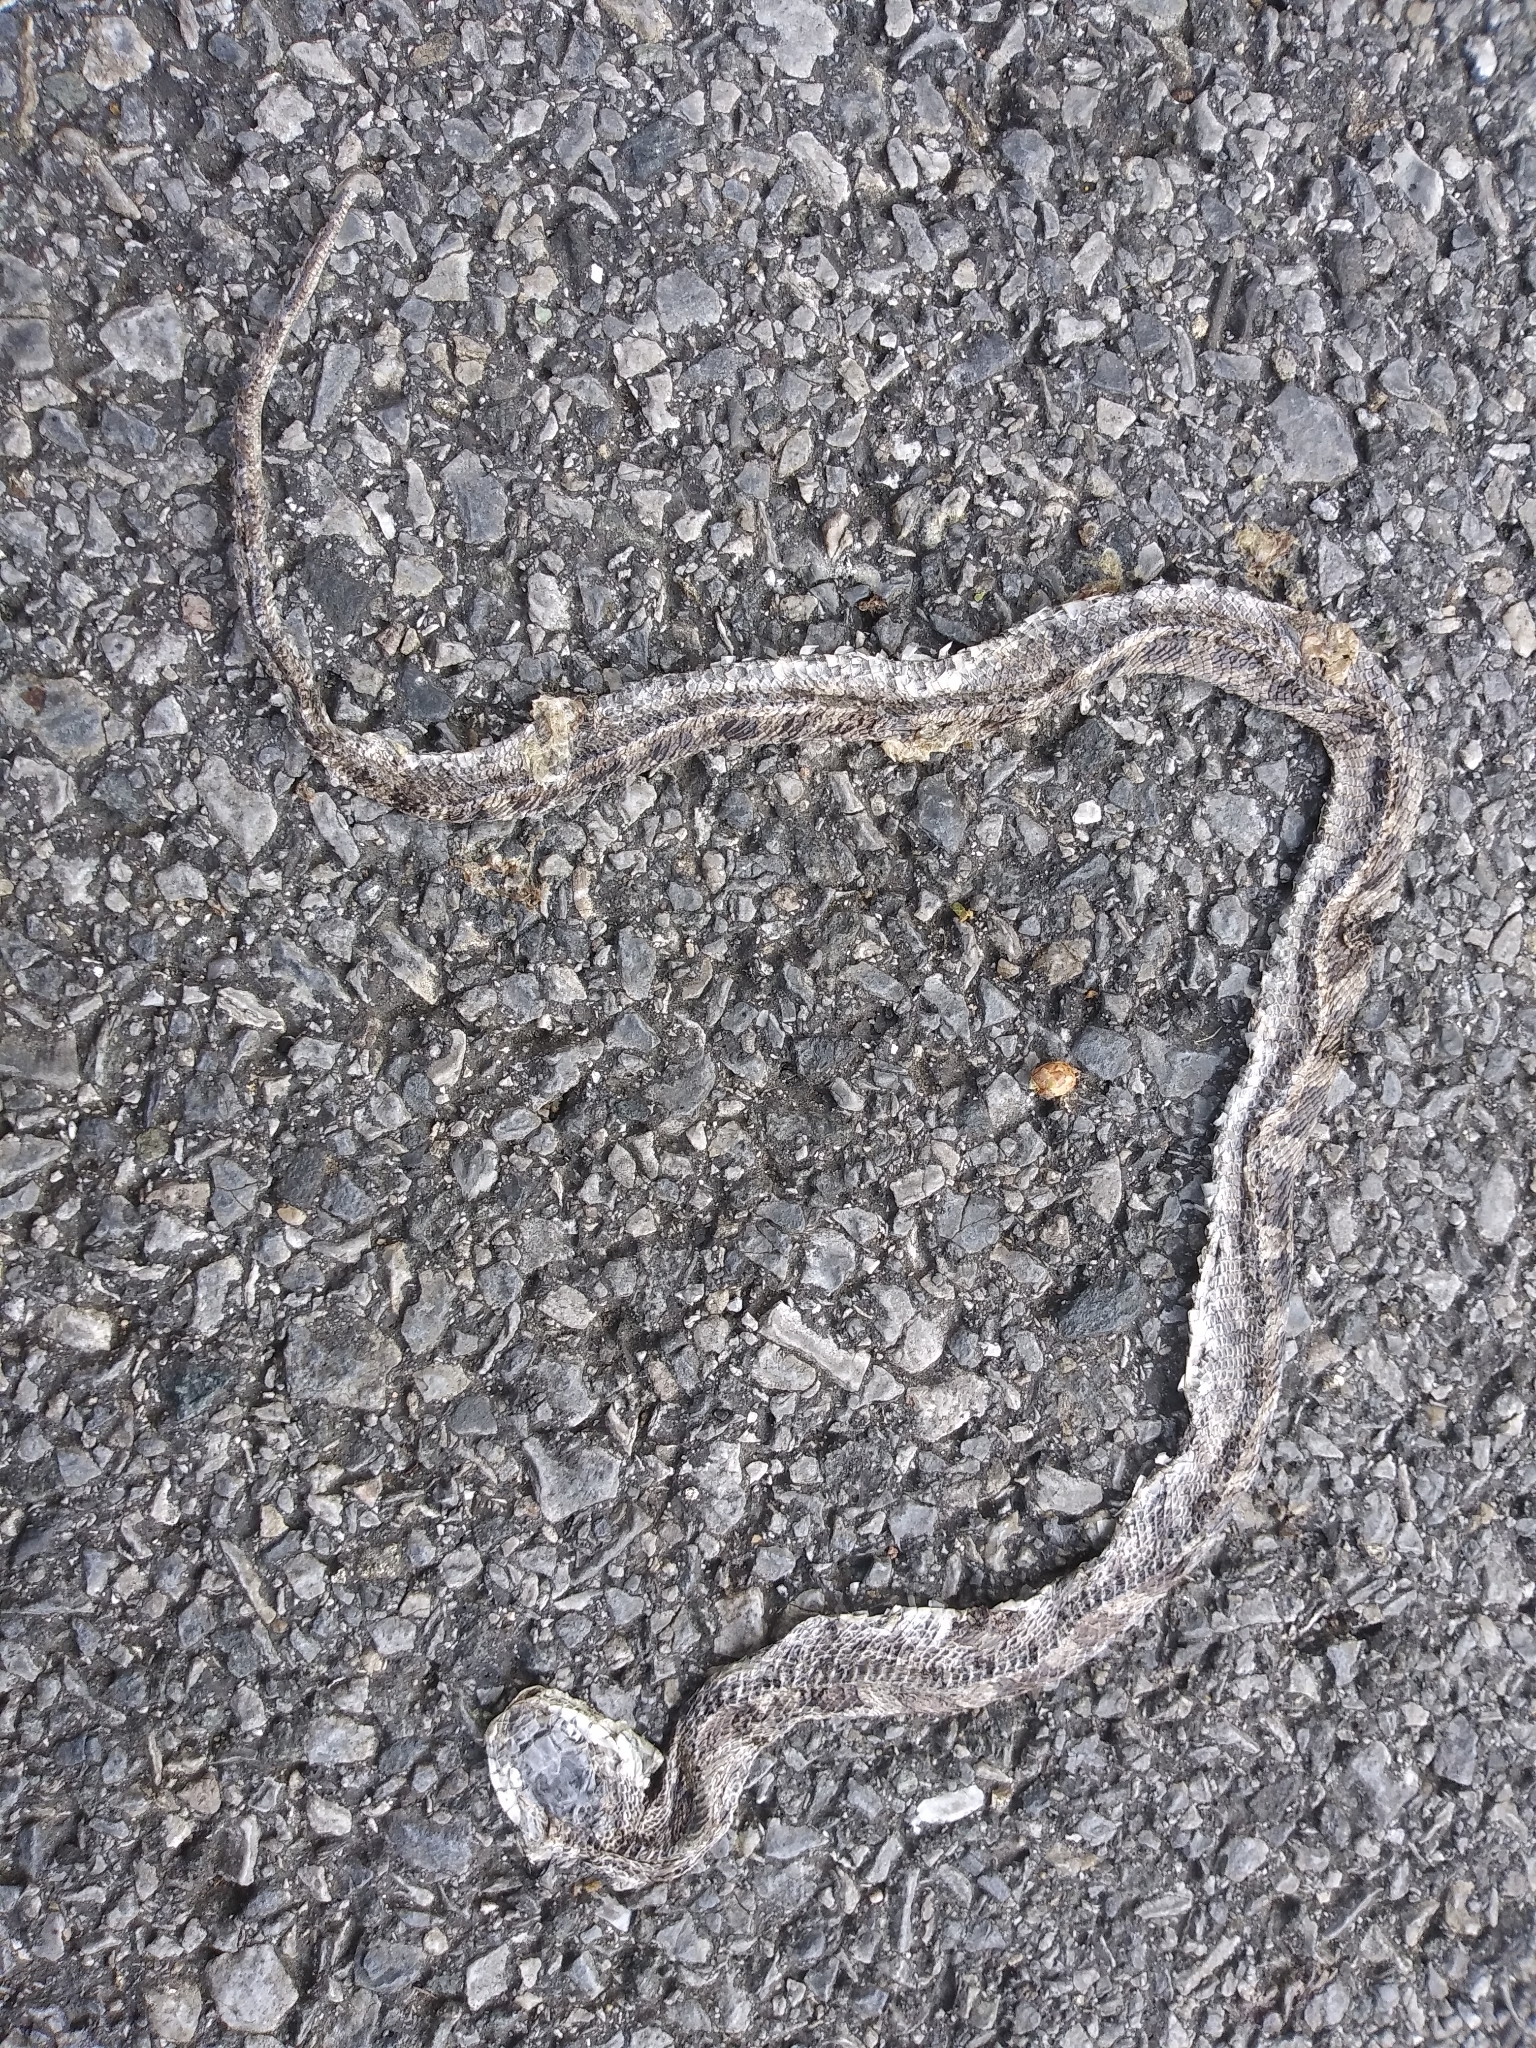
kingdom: Animalia
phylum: Chordata
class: Squamata
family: Colubridae
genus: Pantherophis
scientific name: Pantherophis
